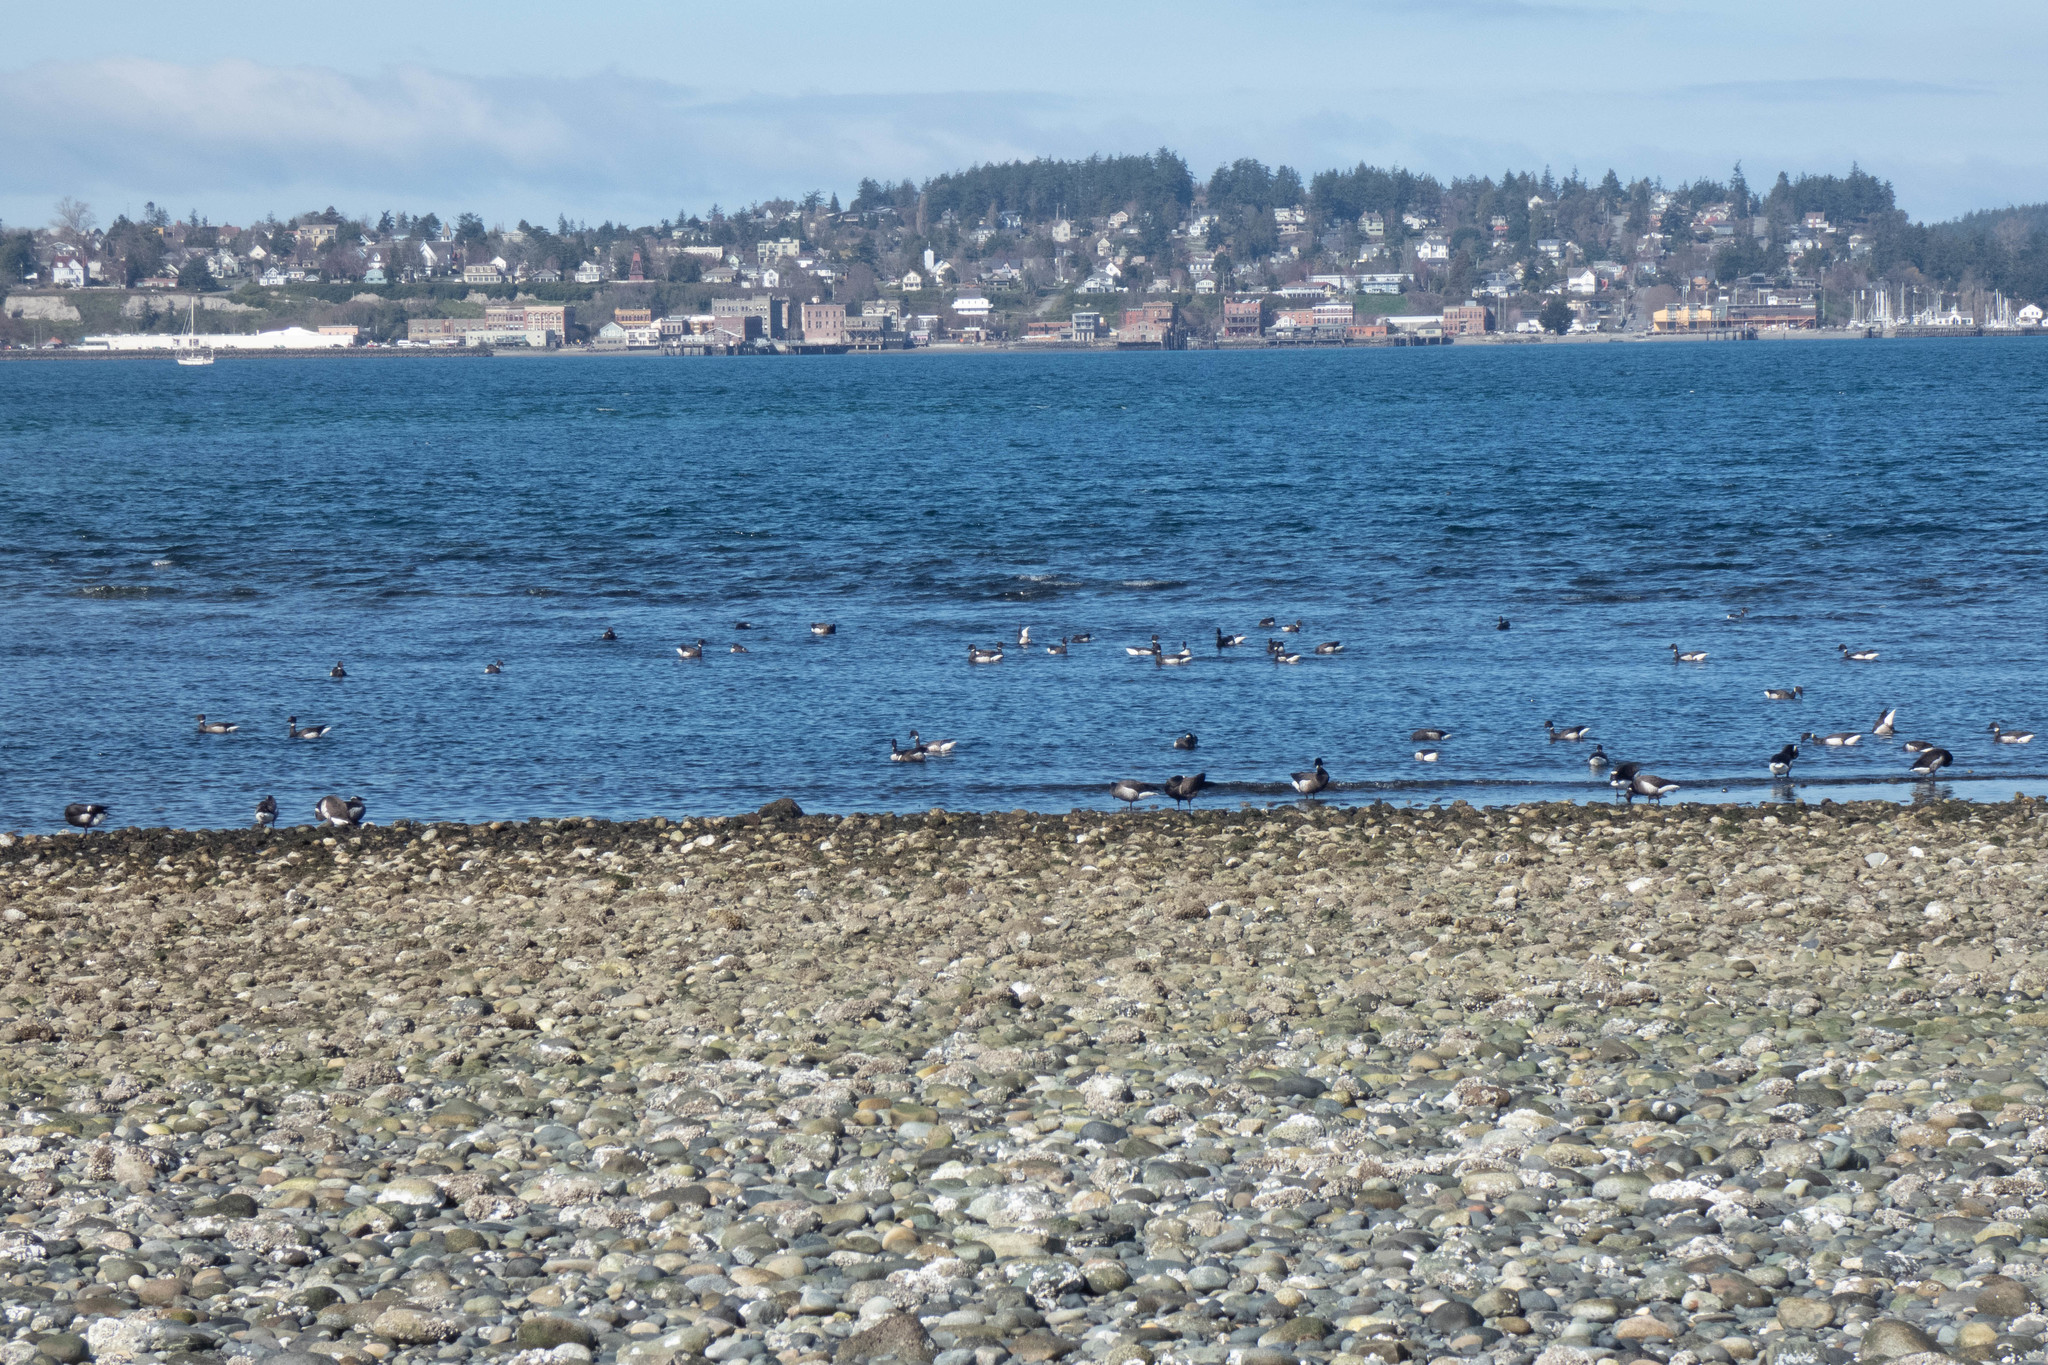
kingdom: Animalia
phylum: Chordata
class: Aves
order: Anseriformes
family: Anatidae
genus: Branta
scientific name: Branta bernicla
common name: Brant goose
